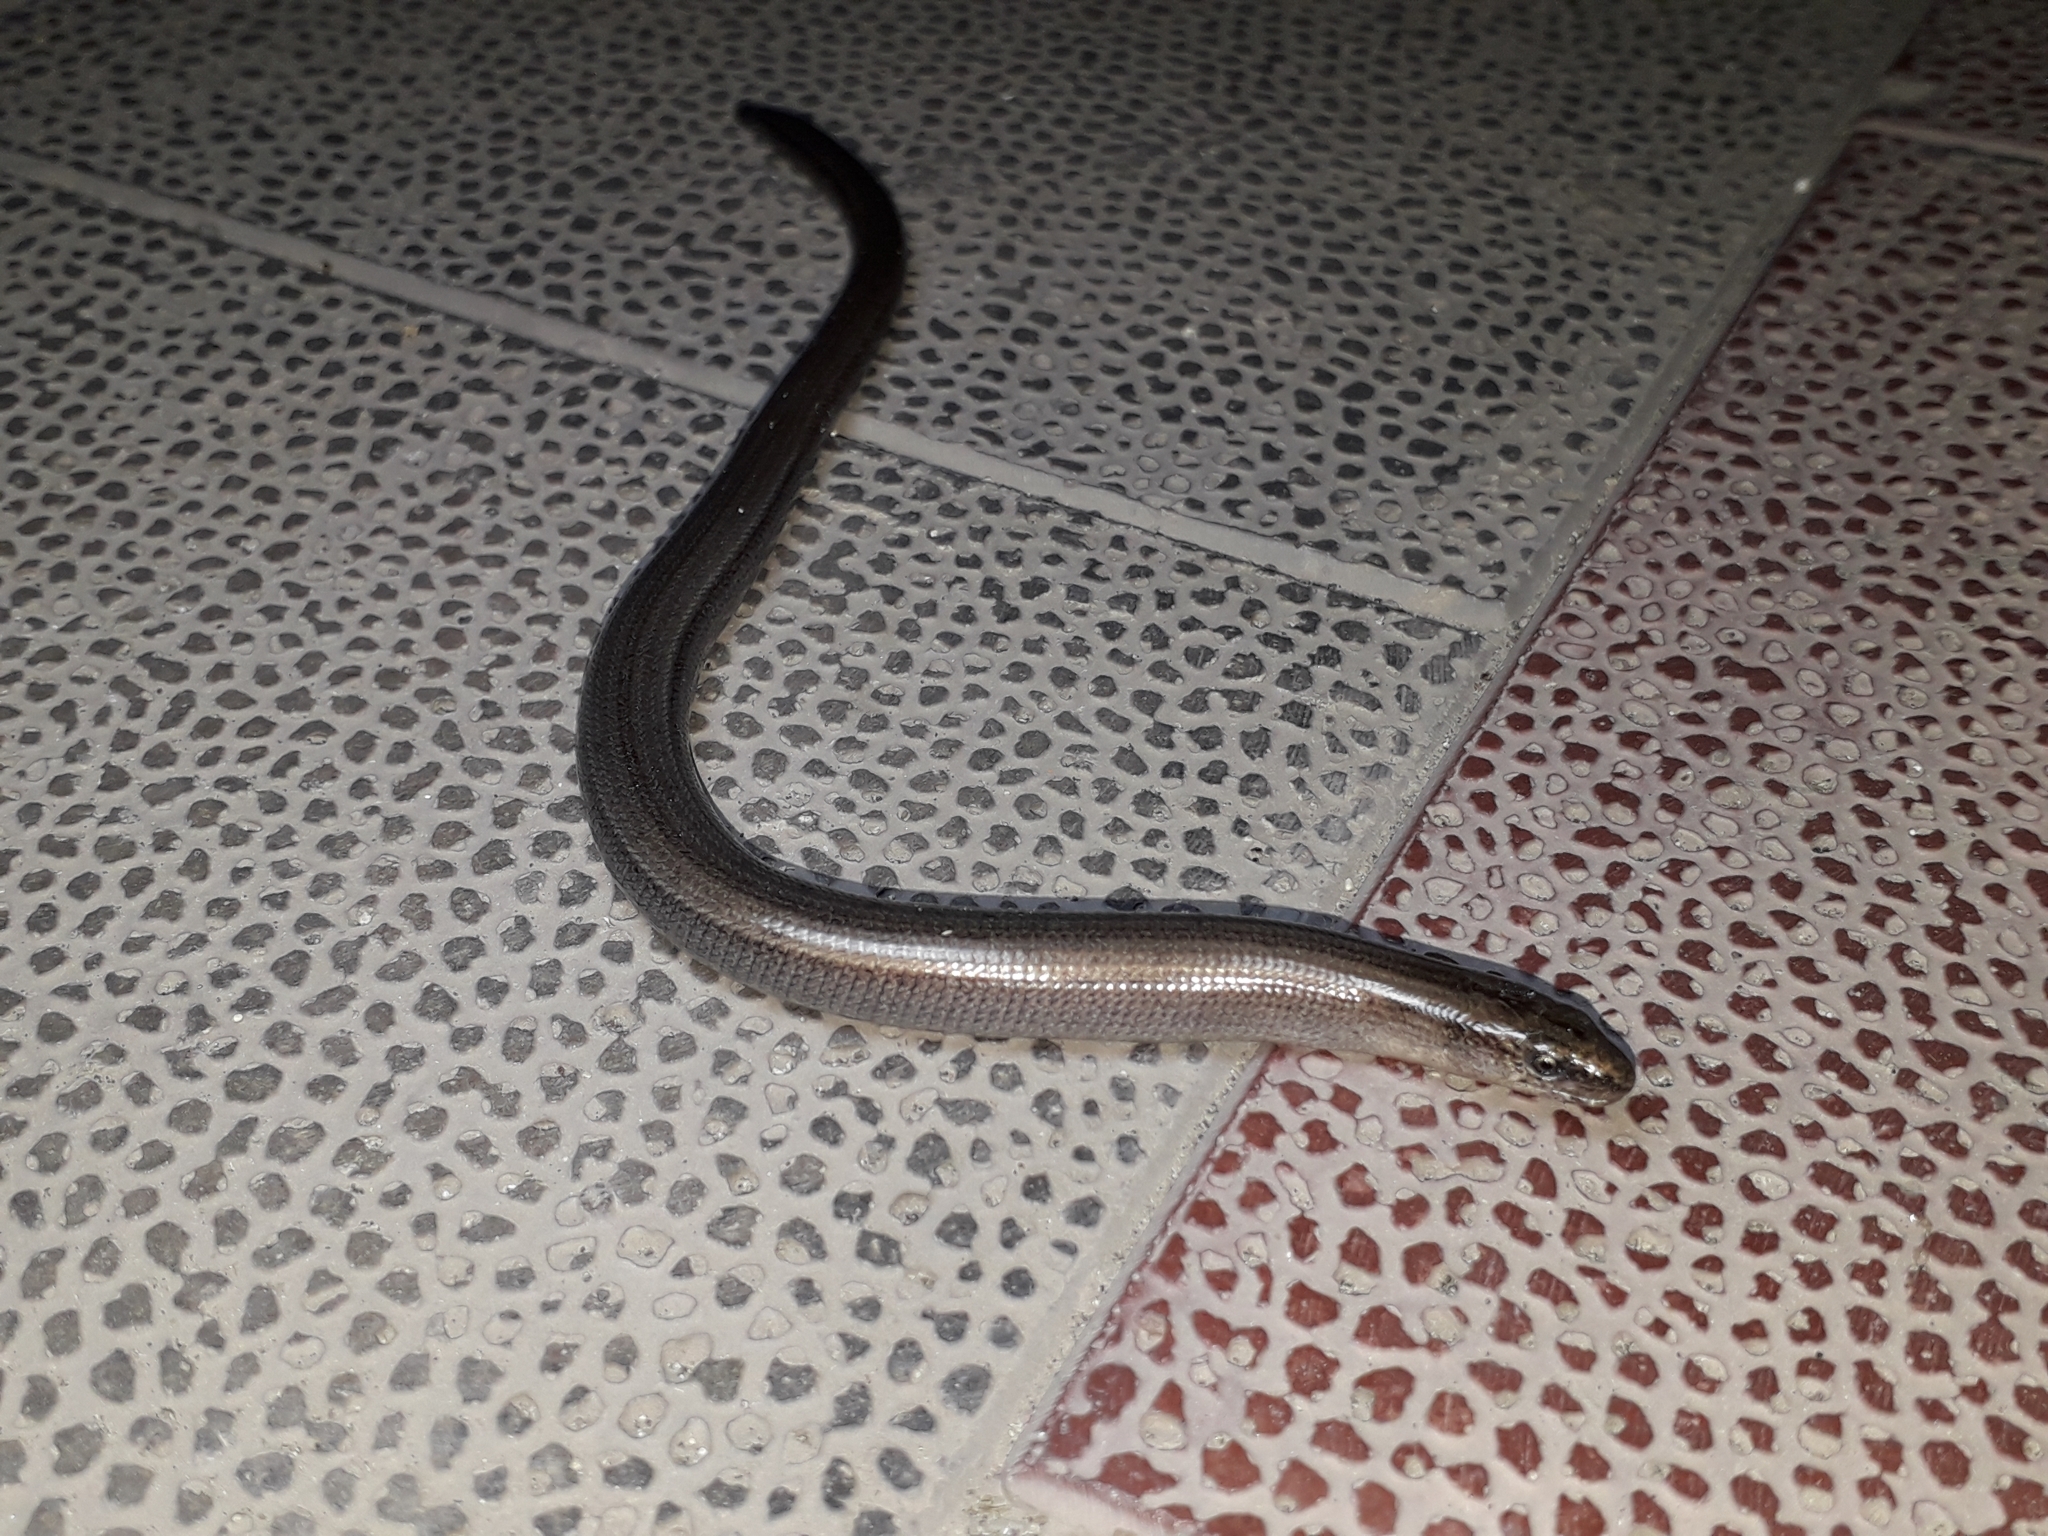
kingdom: Animalia
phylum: Chordata
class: Squamata
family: Anguidae
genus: Anguis
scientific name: Anguis colchica
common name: Slow worm
